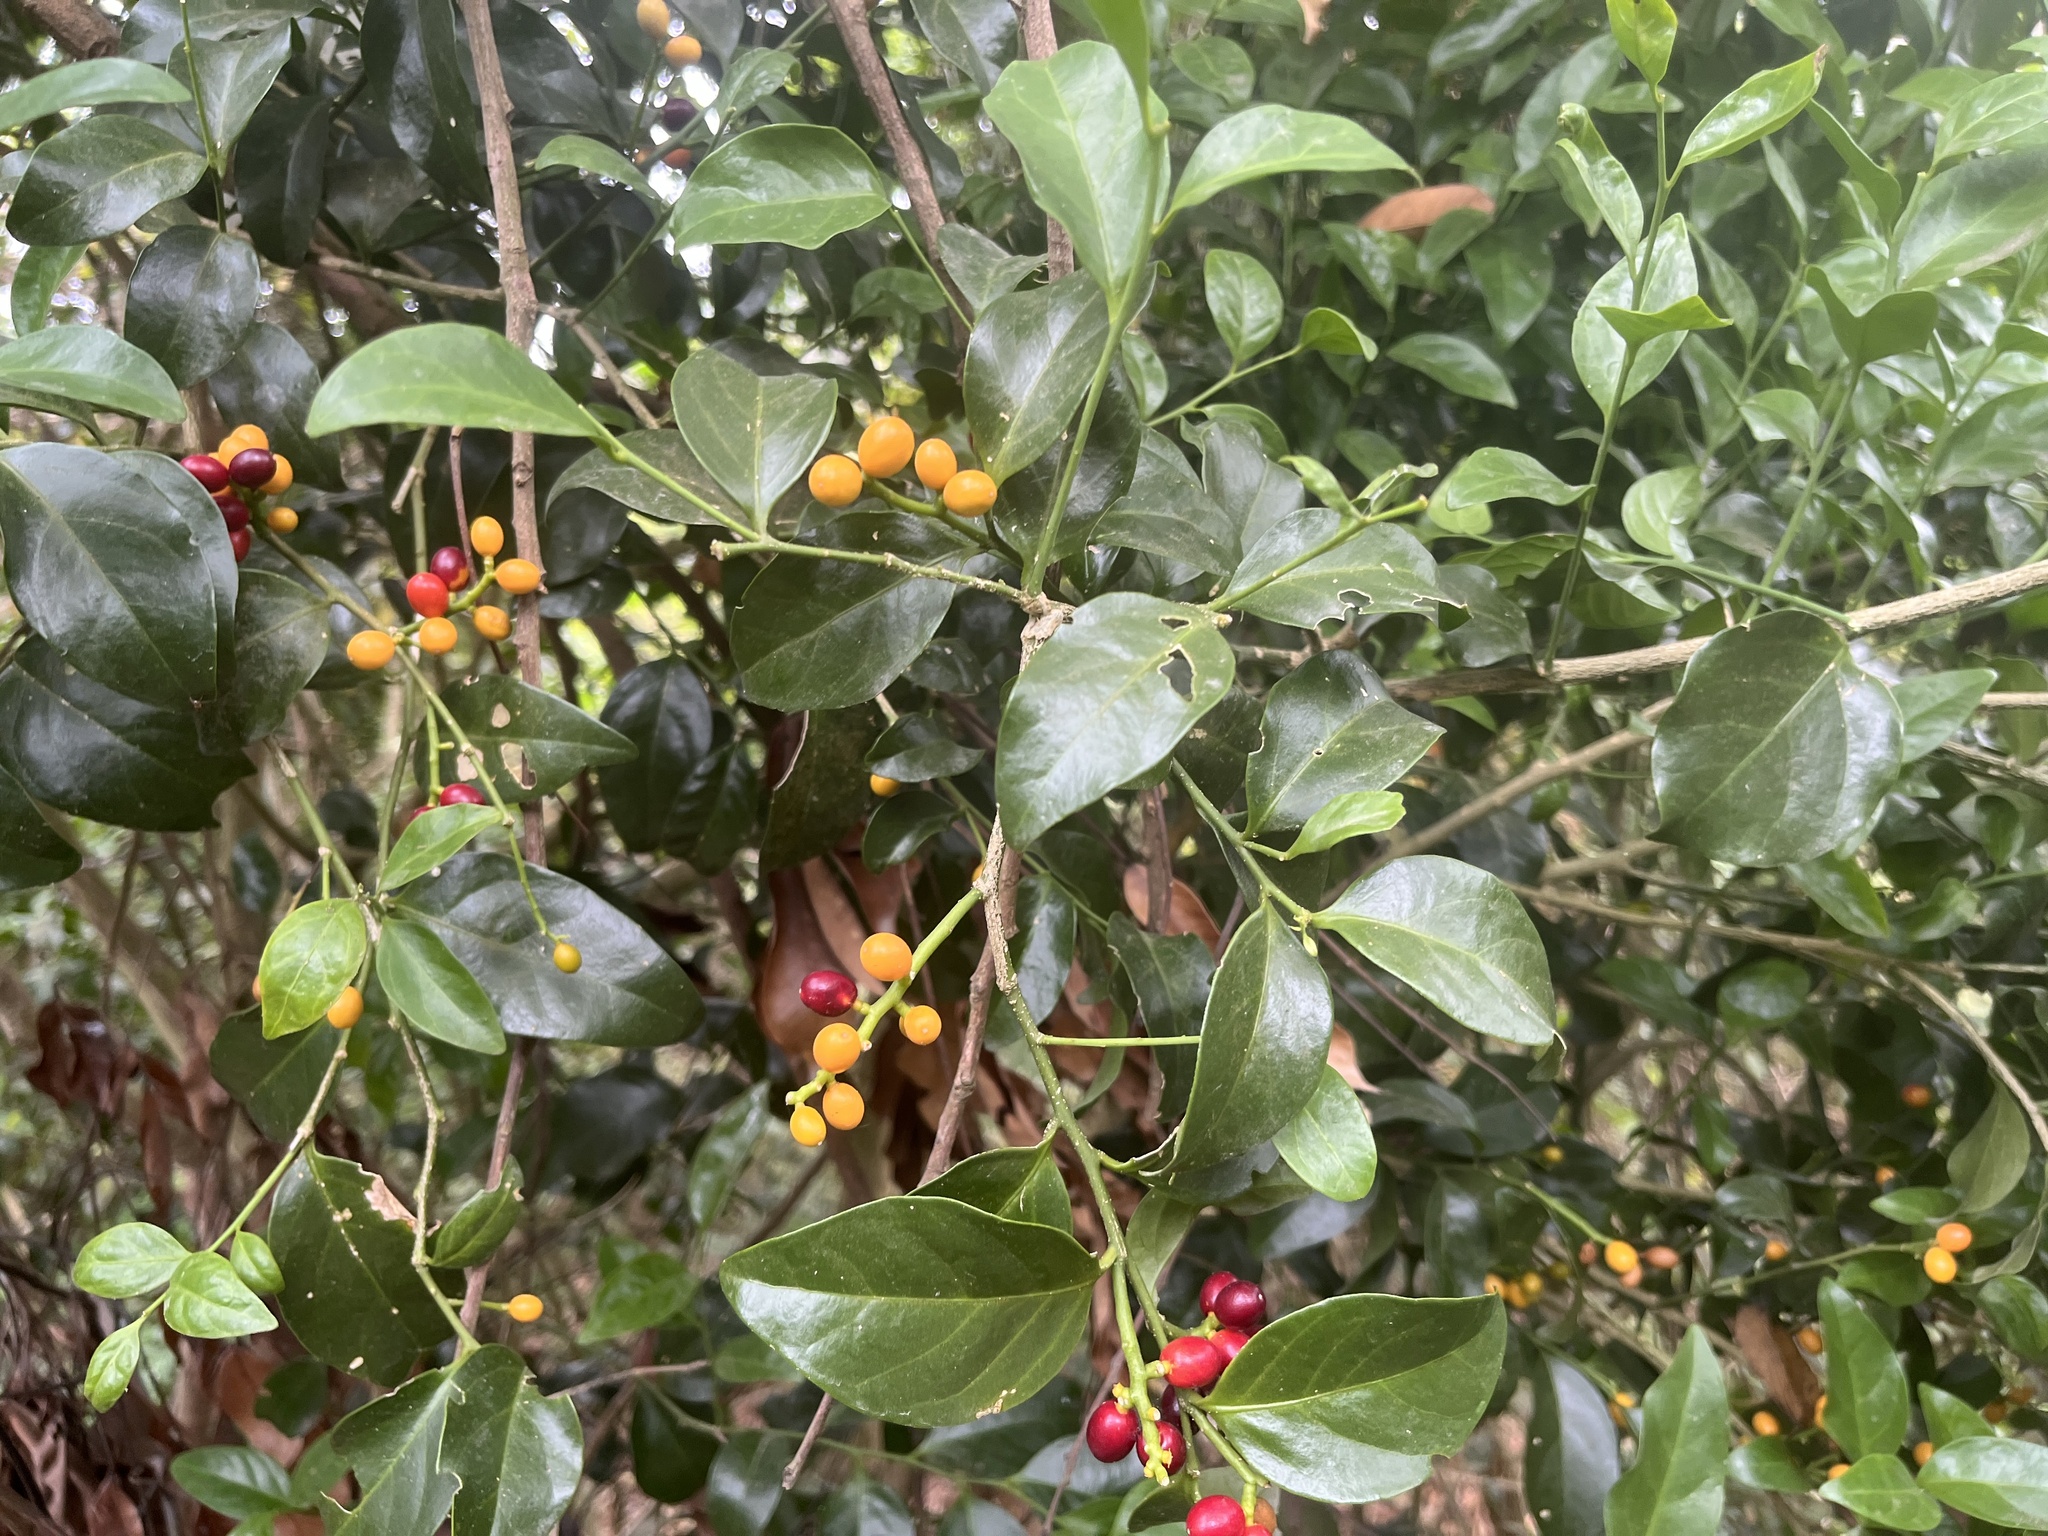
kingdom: Plantae
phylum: Tracheophyta
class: Magnoliopsida
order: Santalales
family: Opiliaceae
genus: Champereia
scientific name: Champereia manillana
